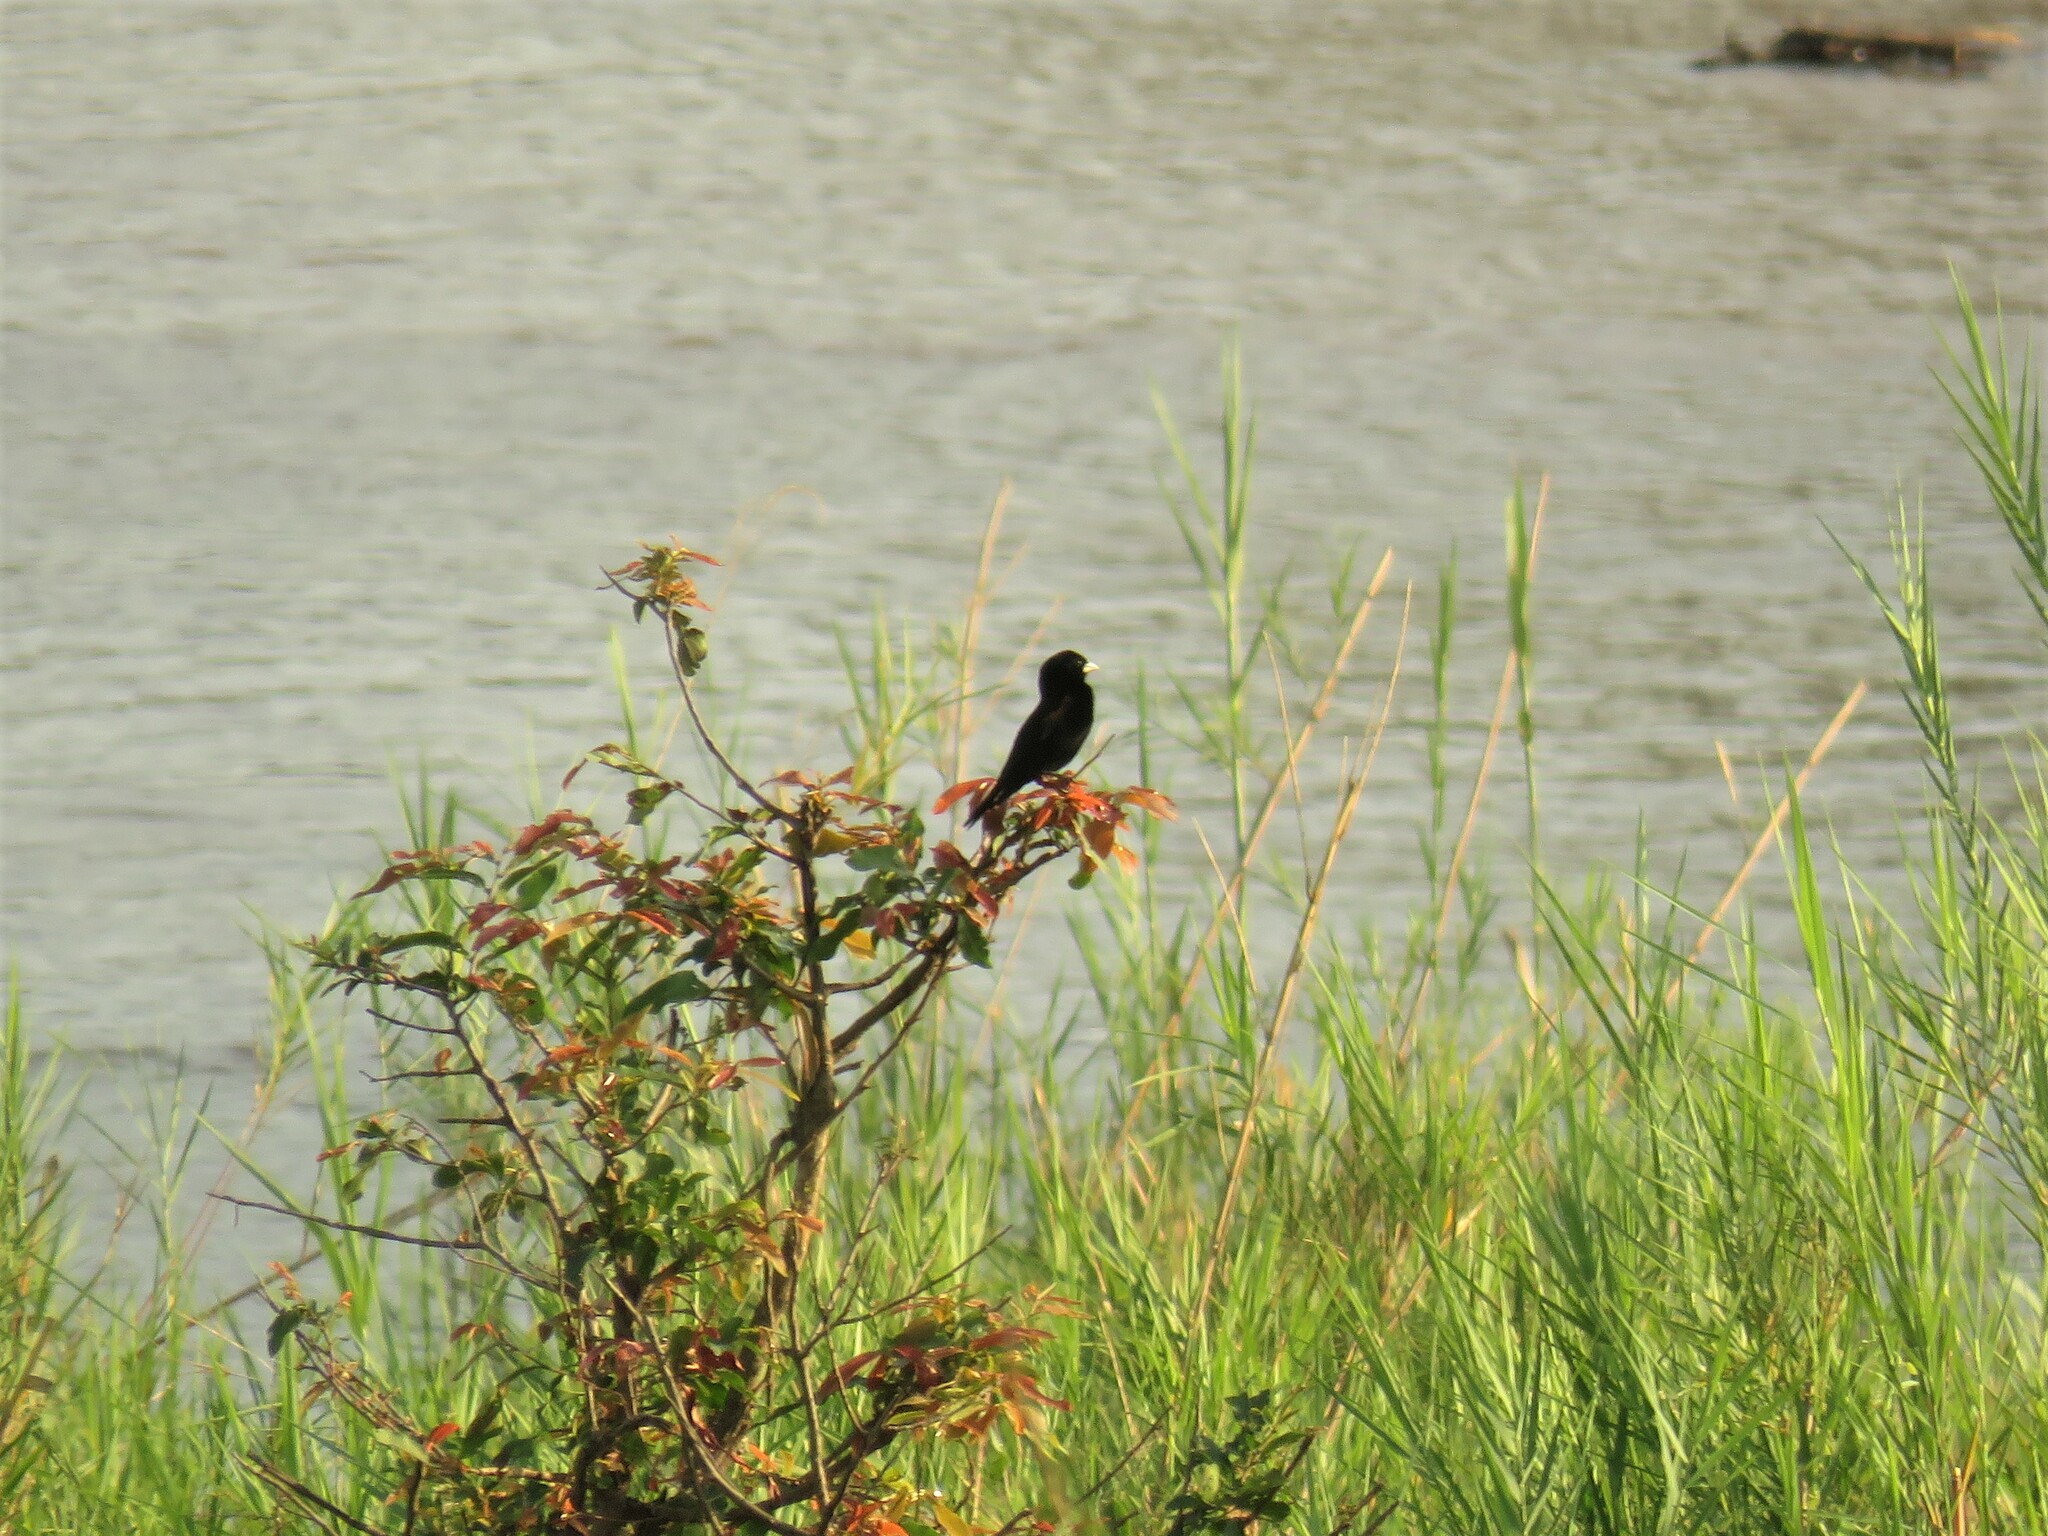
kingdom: Animalia
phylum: Chordata
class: Aves
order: Passeriformes
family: Ploceidae
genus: Euplectes
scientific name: Euplectes axillaris
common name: Fan-tailed widowbird
